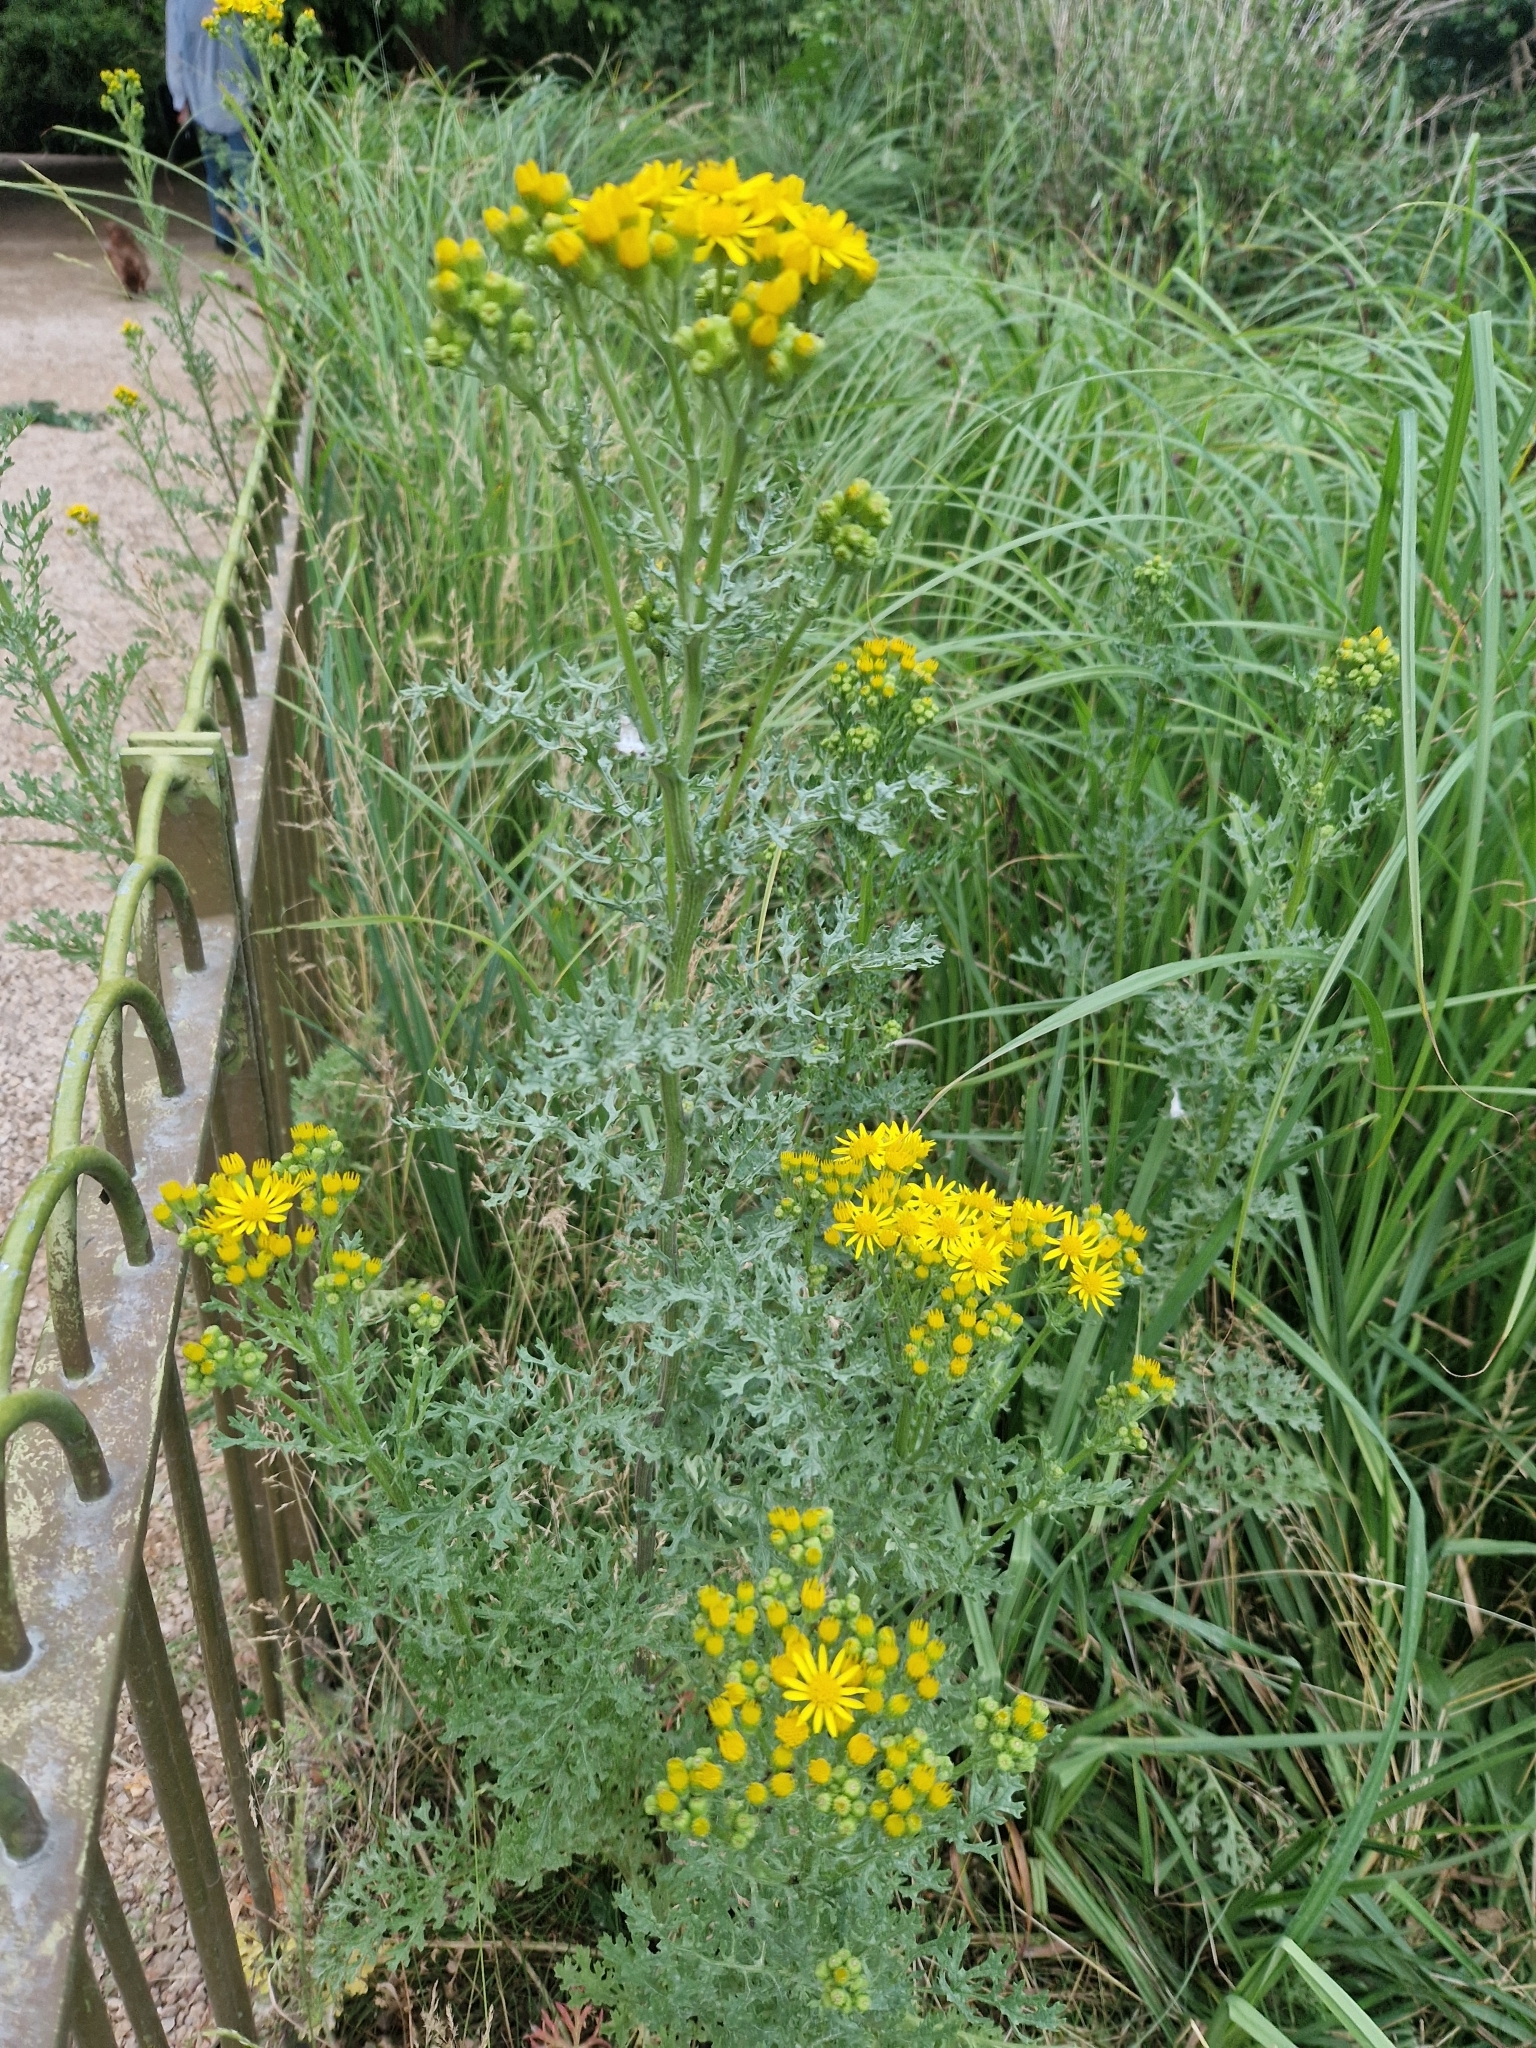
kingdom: Plantae
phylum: Tracheophyta
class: Magnoliopsida
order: Asterales
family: Asteraceae
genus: Jacobaea
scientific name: Jacobaea vulgaris
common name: Stinking willie
